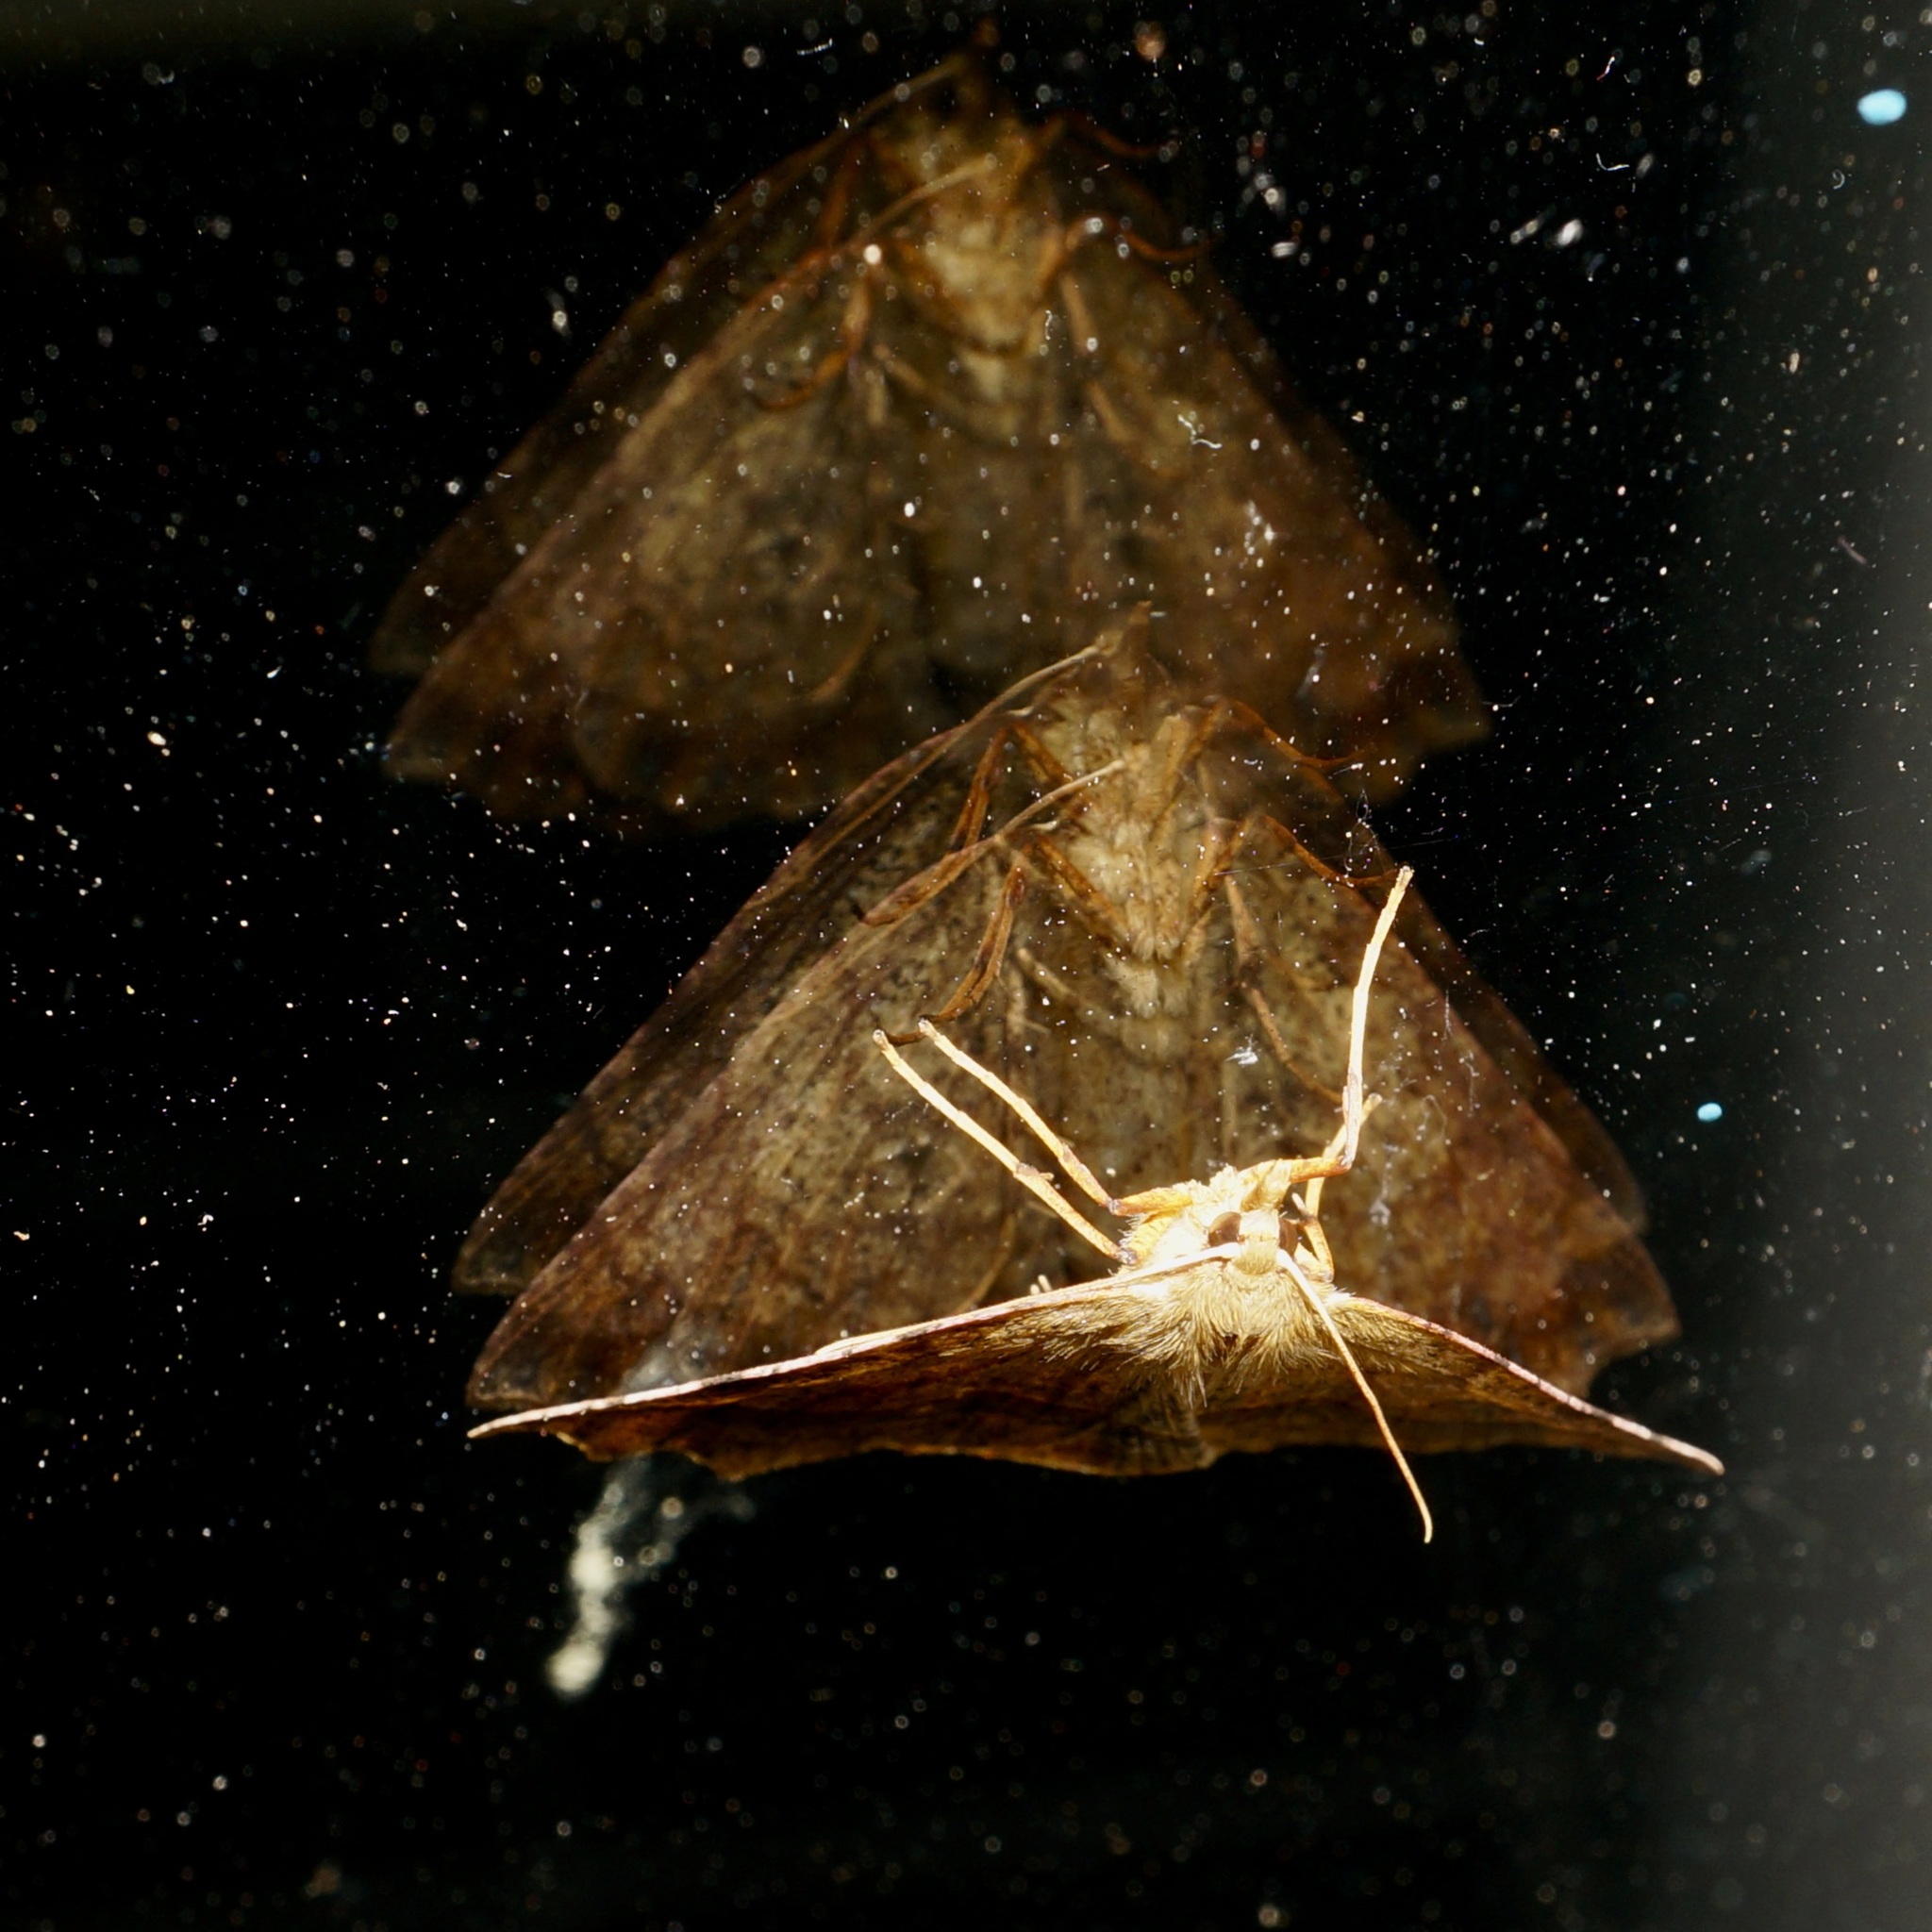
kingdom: Animalia
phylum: Arthropoda
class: Insecta
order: Lepidoptera
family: Geometridae
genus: Ischalis
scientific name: Ischalis variabilis
